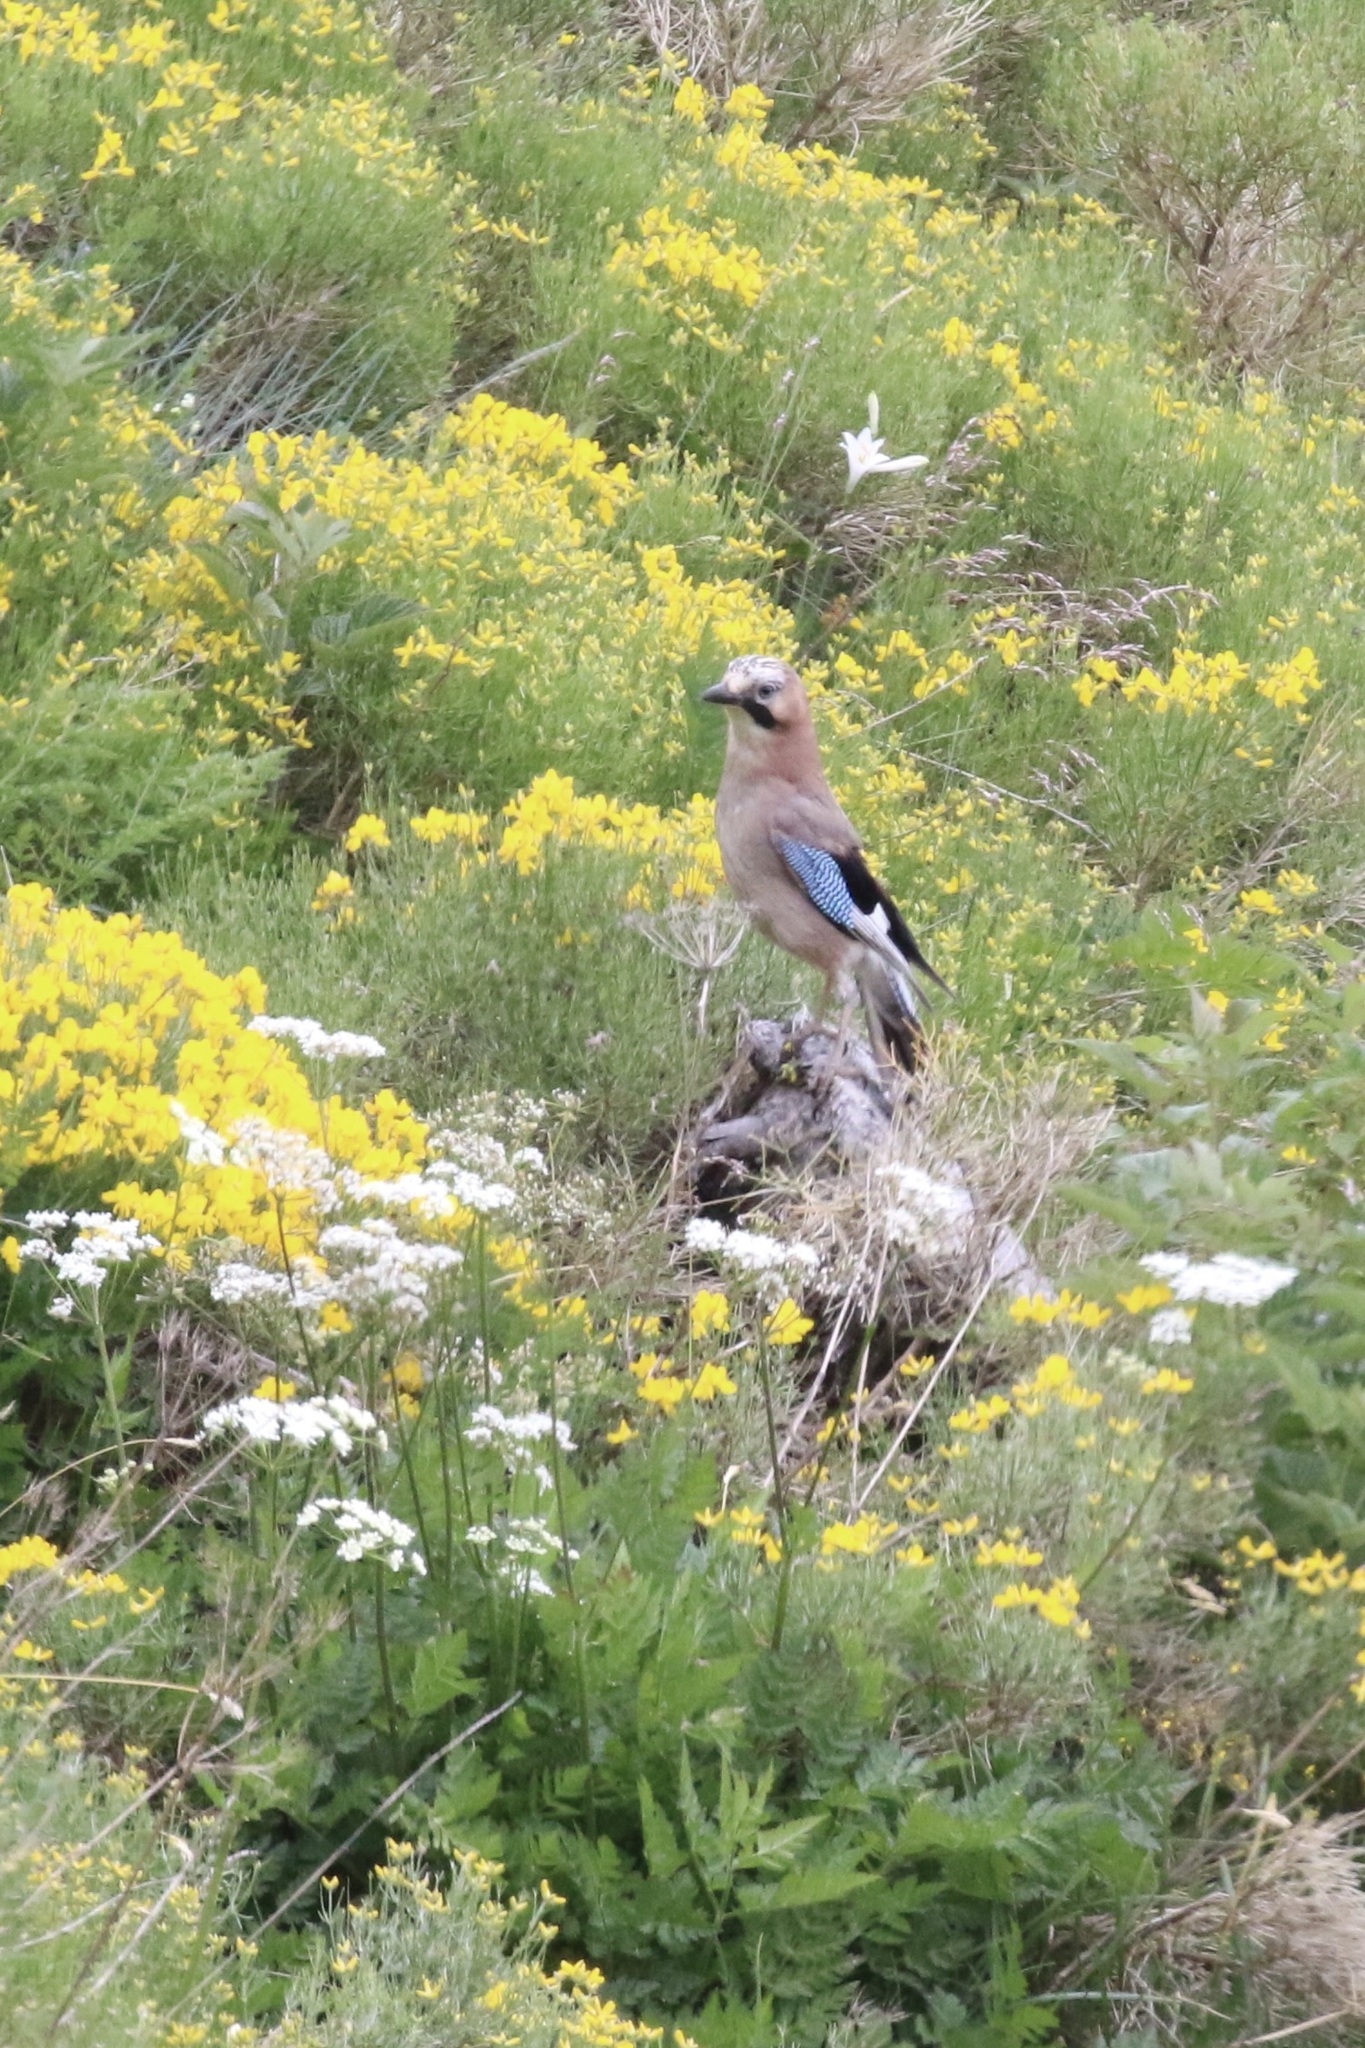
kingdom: Animalia
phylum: Chordata
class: Aves
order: Passeriformes
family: Corvidae
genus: Garrulus
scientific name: Garrulus glandarius
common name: Eurasian jay
